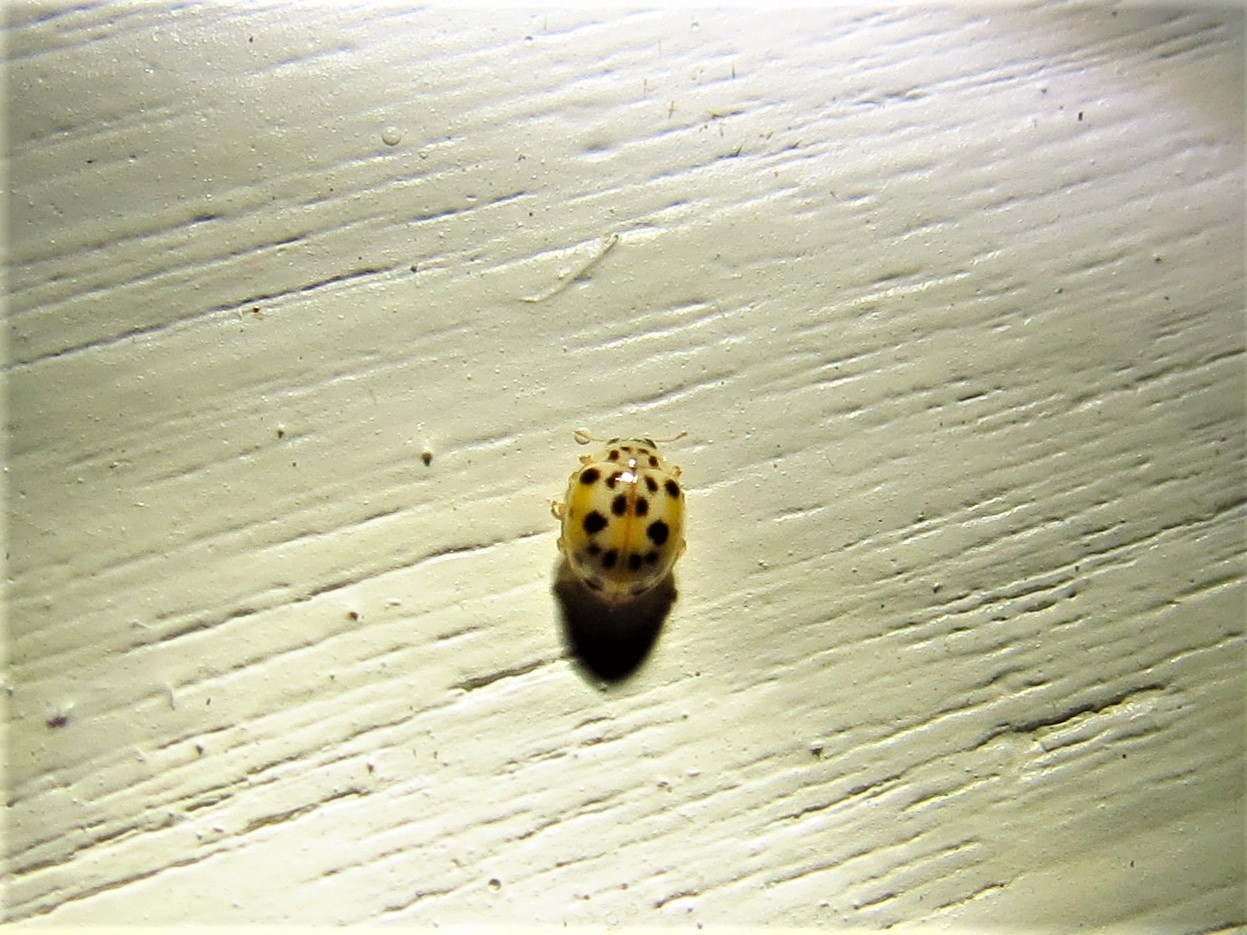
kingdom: Animalia
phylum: Arthropoda
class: Insecta
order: Coleoptera
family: Coccinellidae
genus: Psyllobora
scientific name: Psyllobora vigintimaculata
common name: Ladybird beetle
